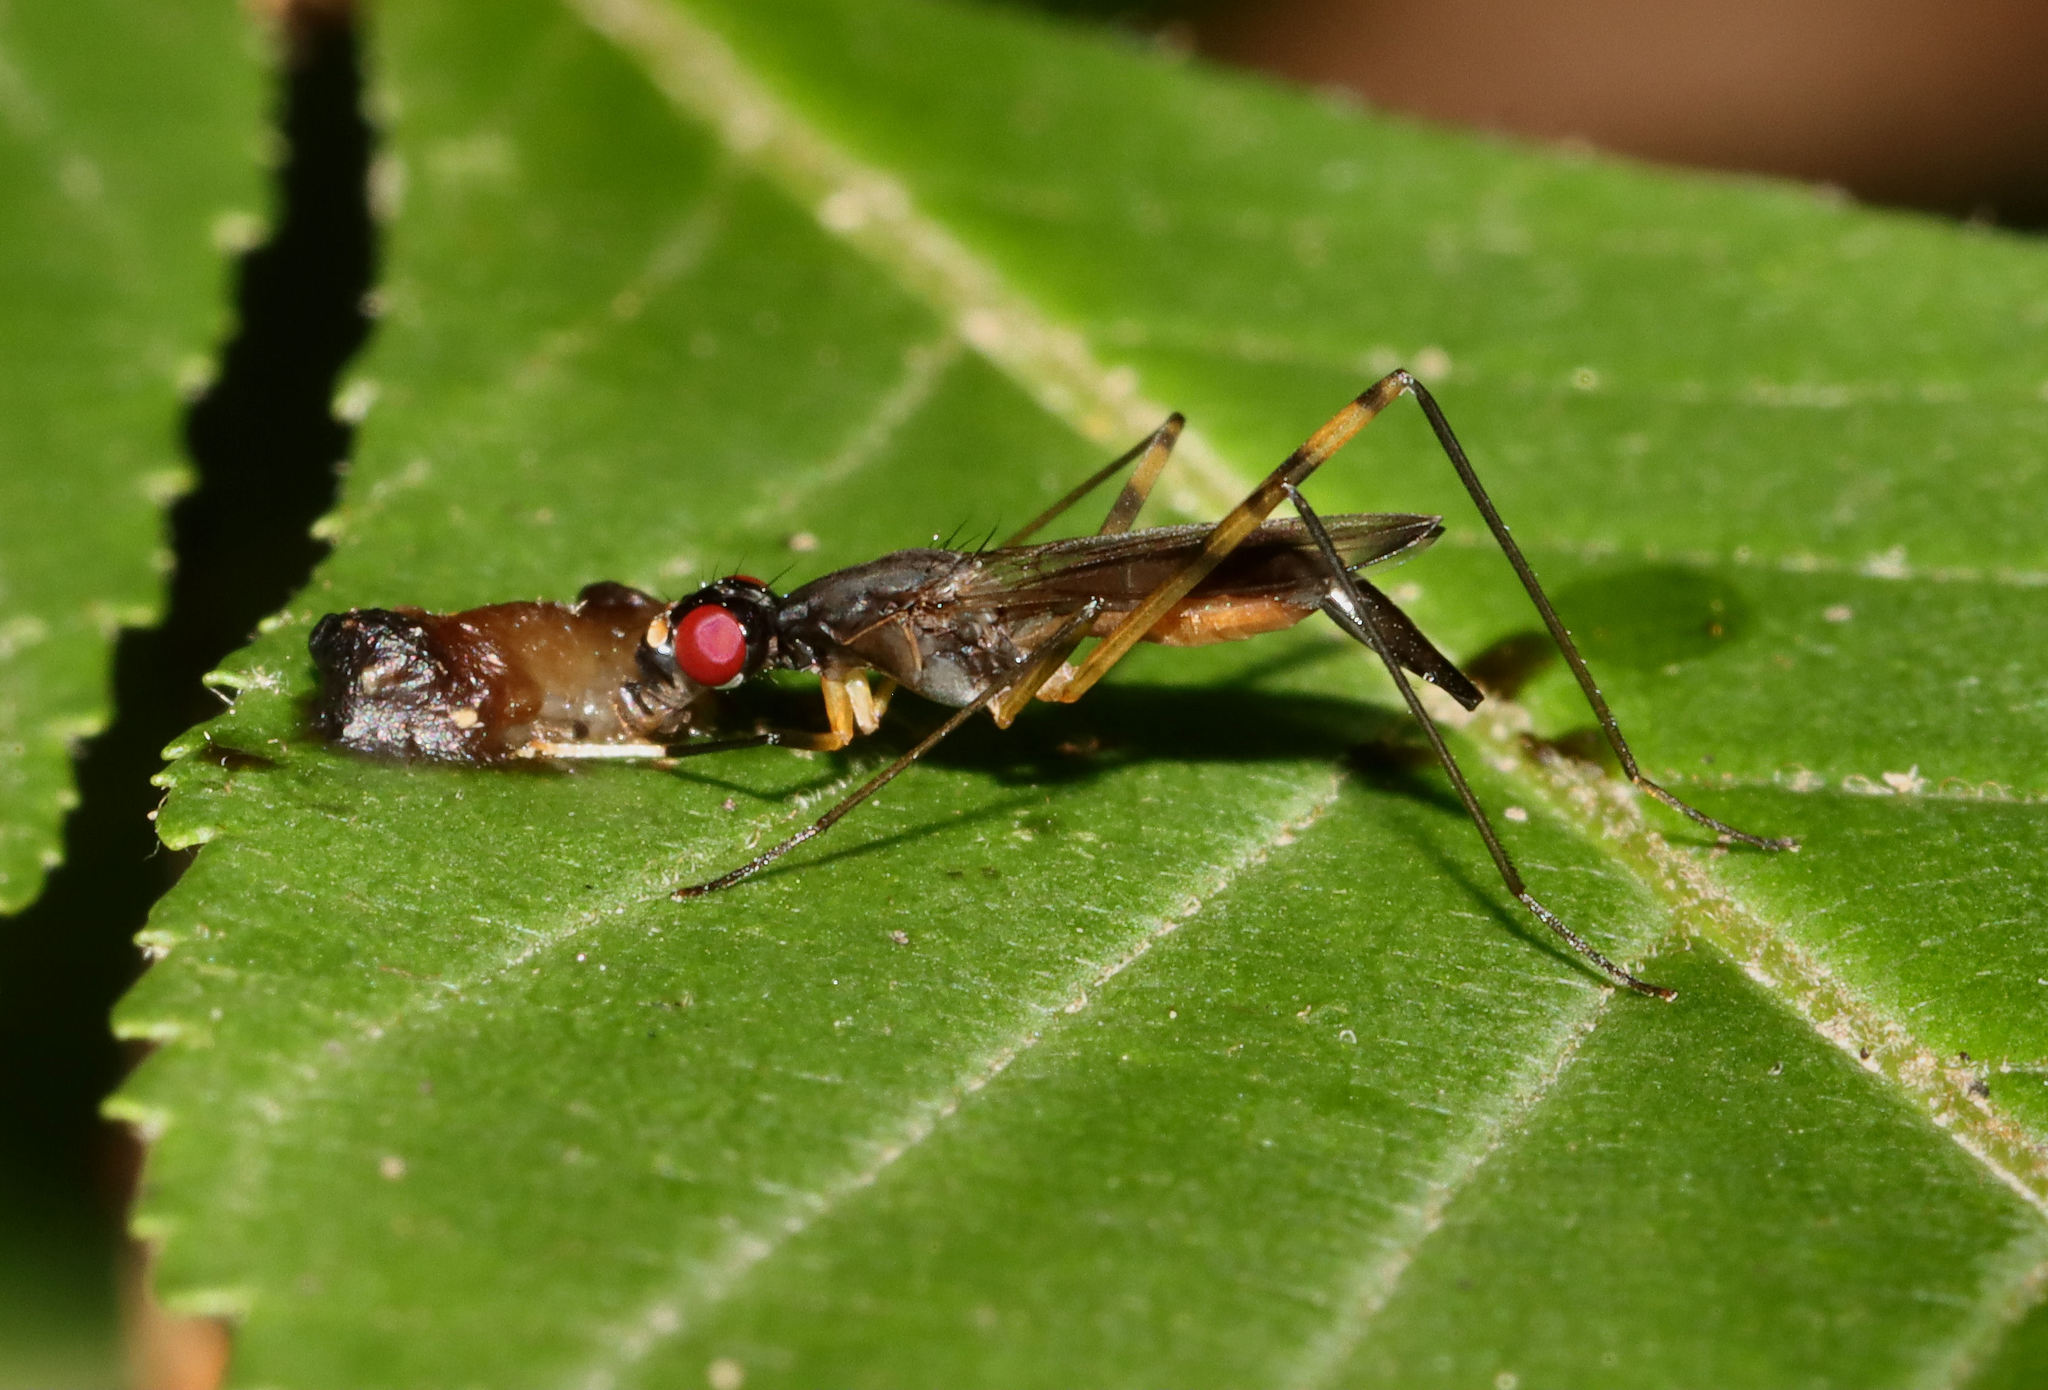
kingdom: Animalia
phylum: Arthropoda
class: Insecta
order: Diptera
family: Micropezidae
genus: Rainieria
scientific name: Rainieria antennaepes
